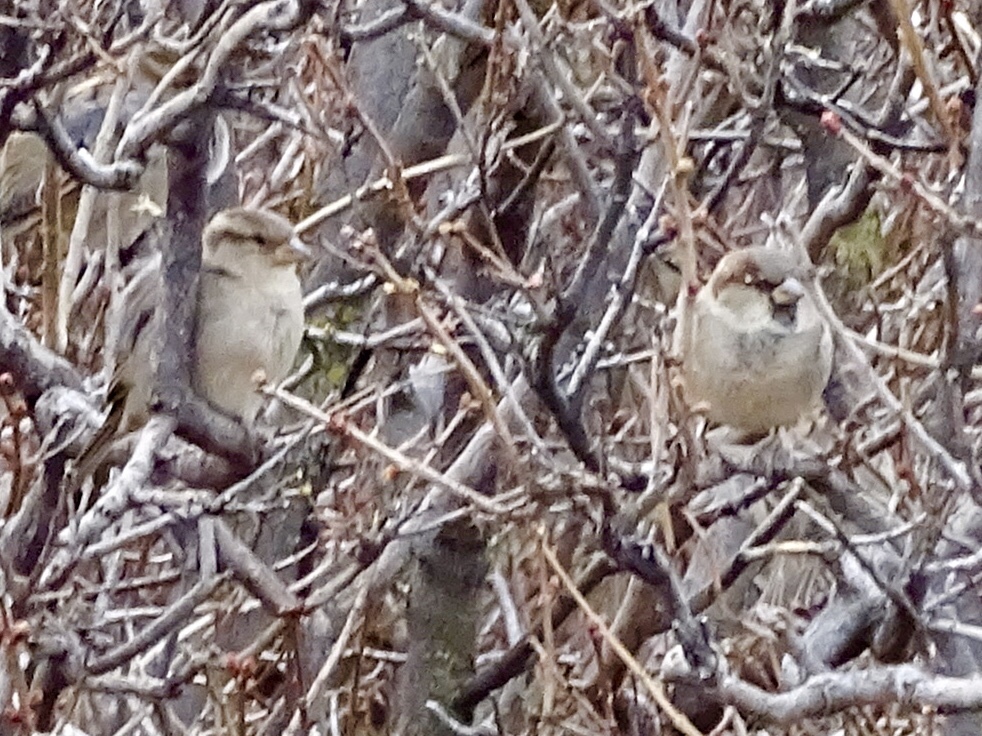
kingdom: Animalia
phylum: Chordata
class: Aves
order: Passeriformes
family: Passeridae
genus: Passer
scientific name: Passer domesticus
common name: House sparrow
